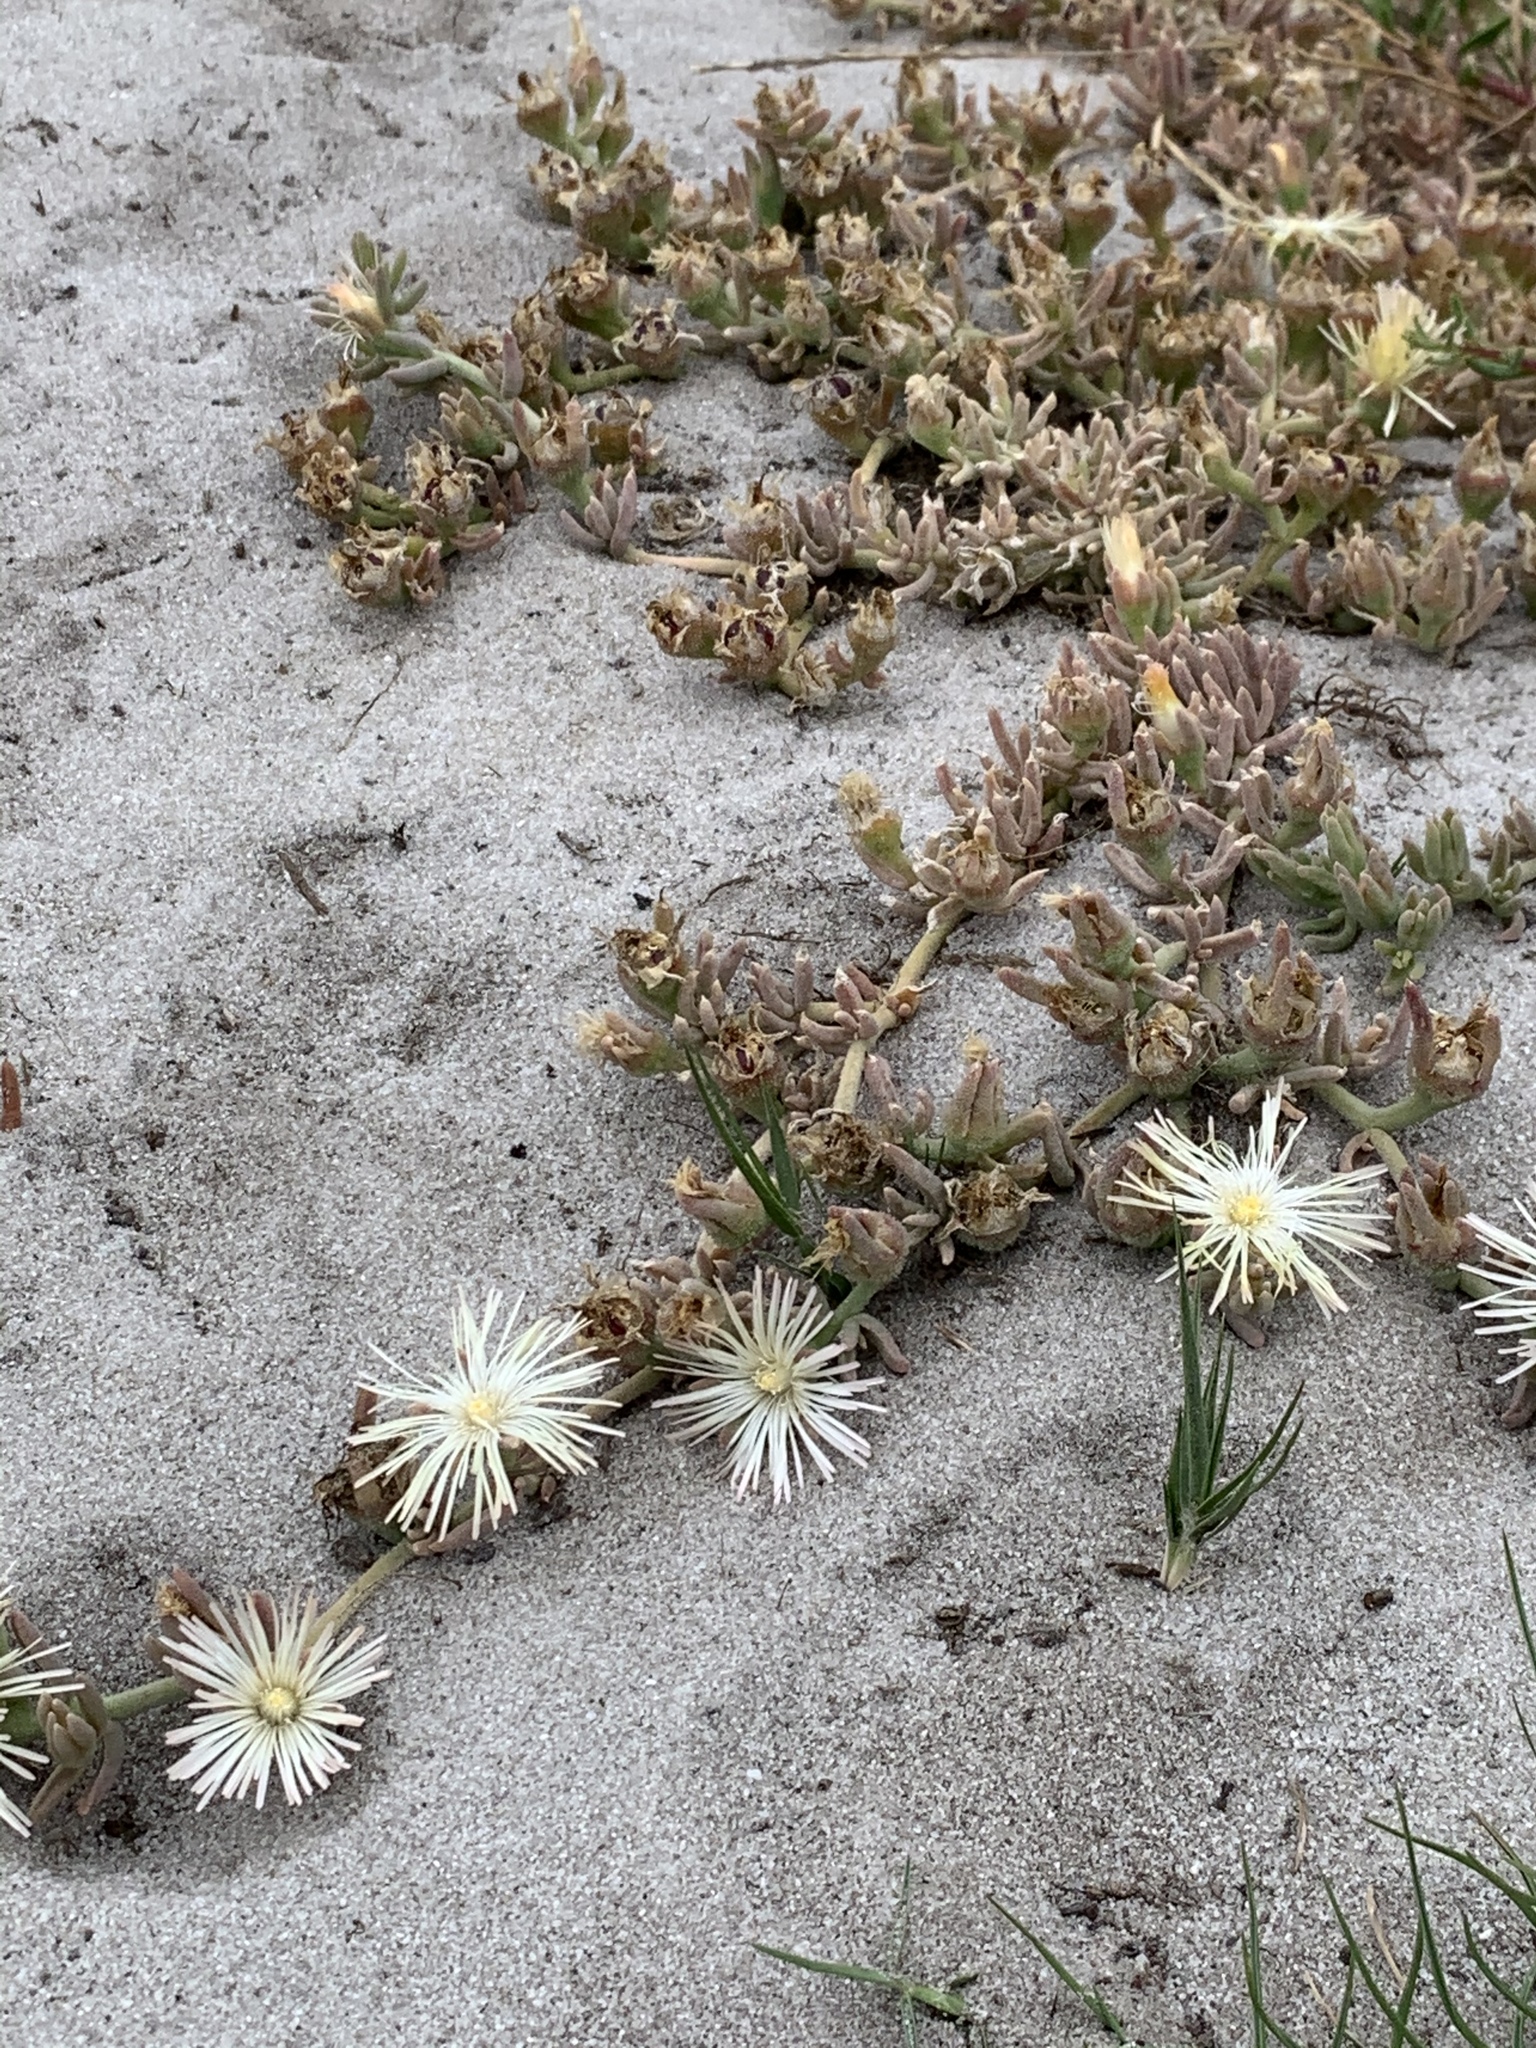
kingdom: Plantae
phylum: Tracheophyta
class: Magnoliopsida
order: Caryophyllales
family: Aizoaceae
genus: Mesembryanthemum
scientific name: Mesembryanthemum canaliculatum
